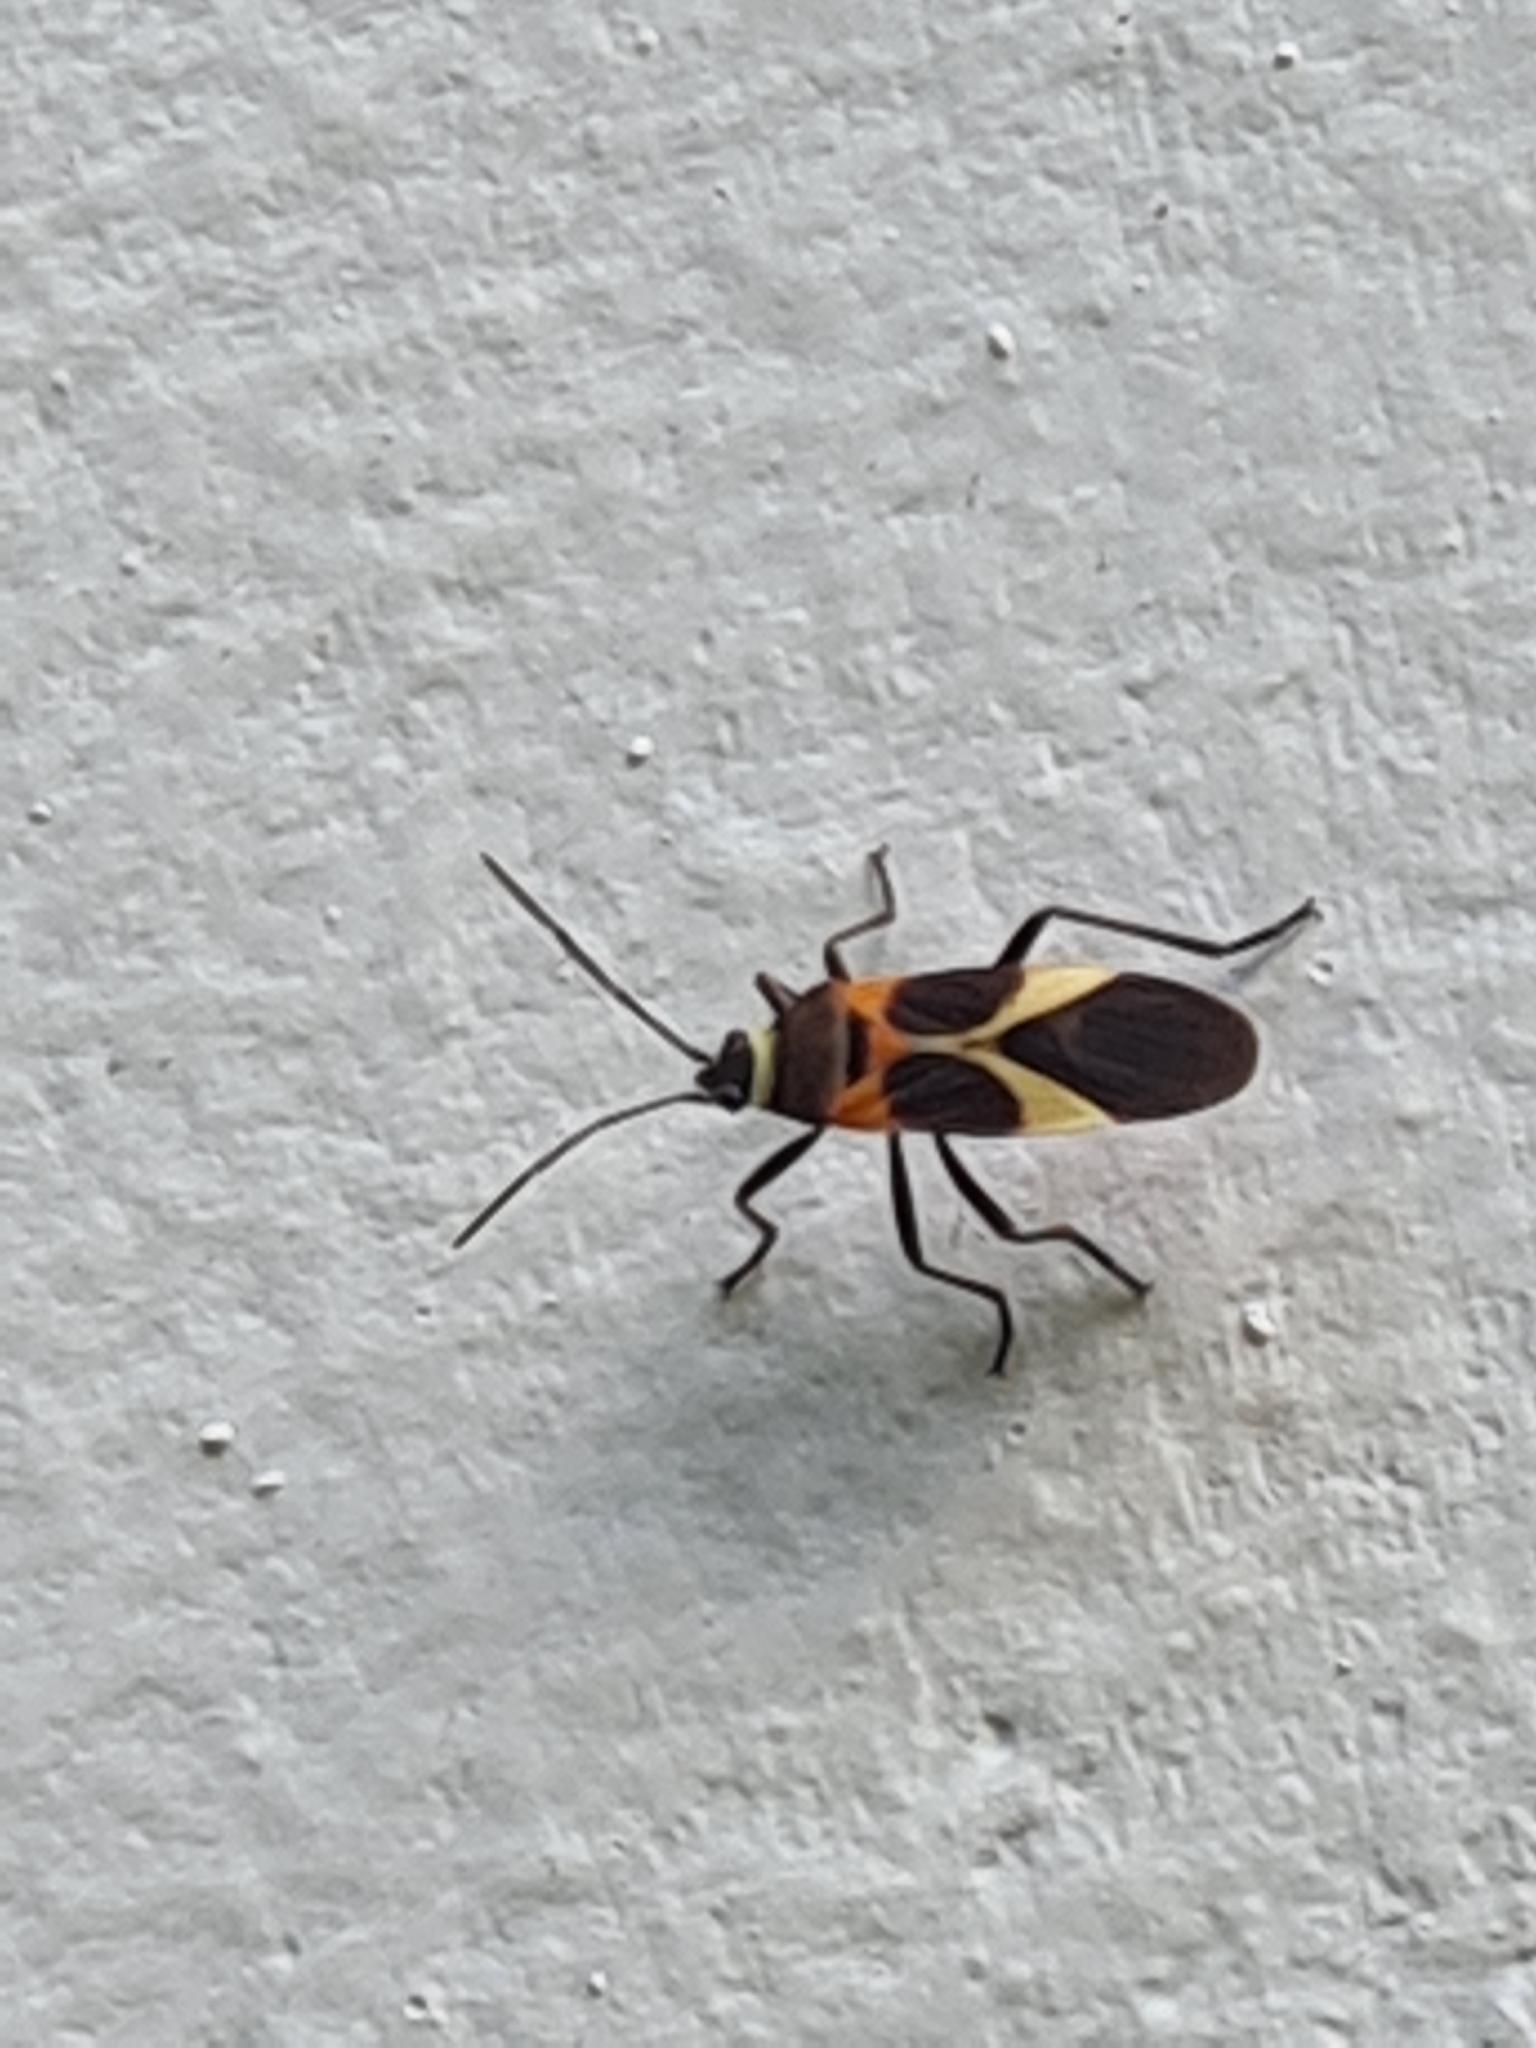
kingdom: Animalia
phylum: Arthropoda
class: Insecta
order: Hemiptera
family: Lygaeidae
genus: Craspeduchus
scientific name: Craspeduchus variegatus
